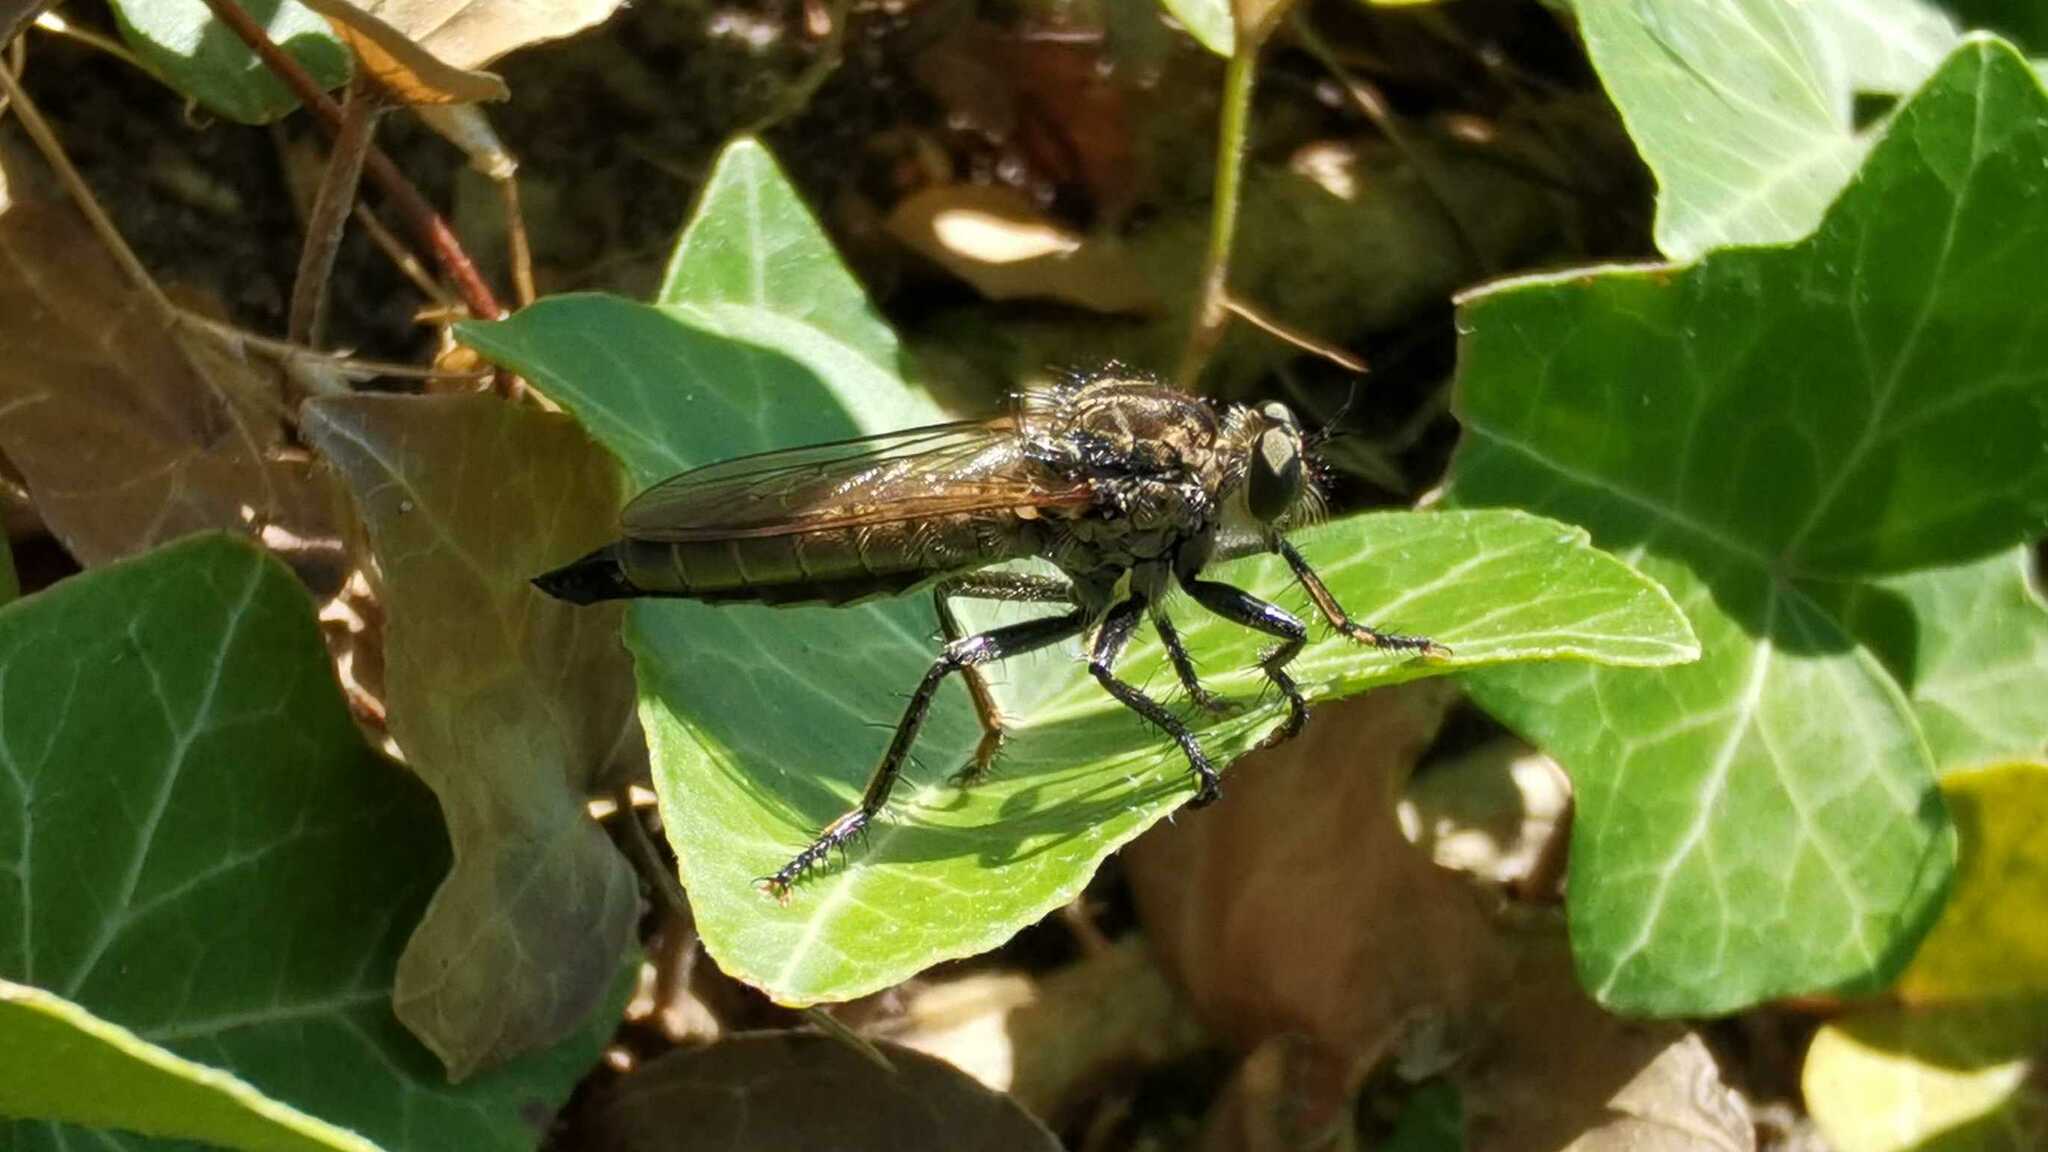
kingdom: Animalia
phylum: Arthropoda
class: Insecta
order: Diptera
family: Asilidae
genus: Eutolmus
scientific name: Eutolmus rufibarbis
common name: Golden-tabbed robberfly
